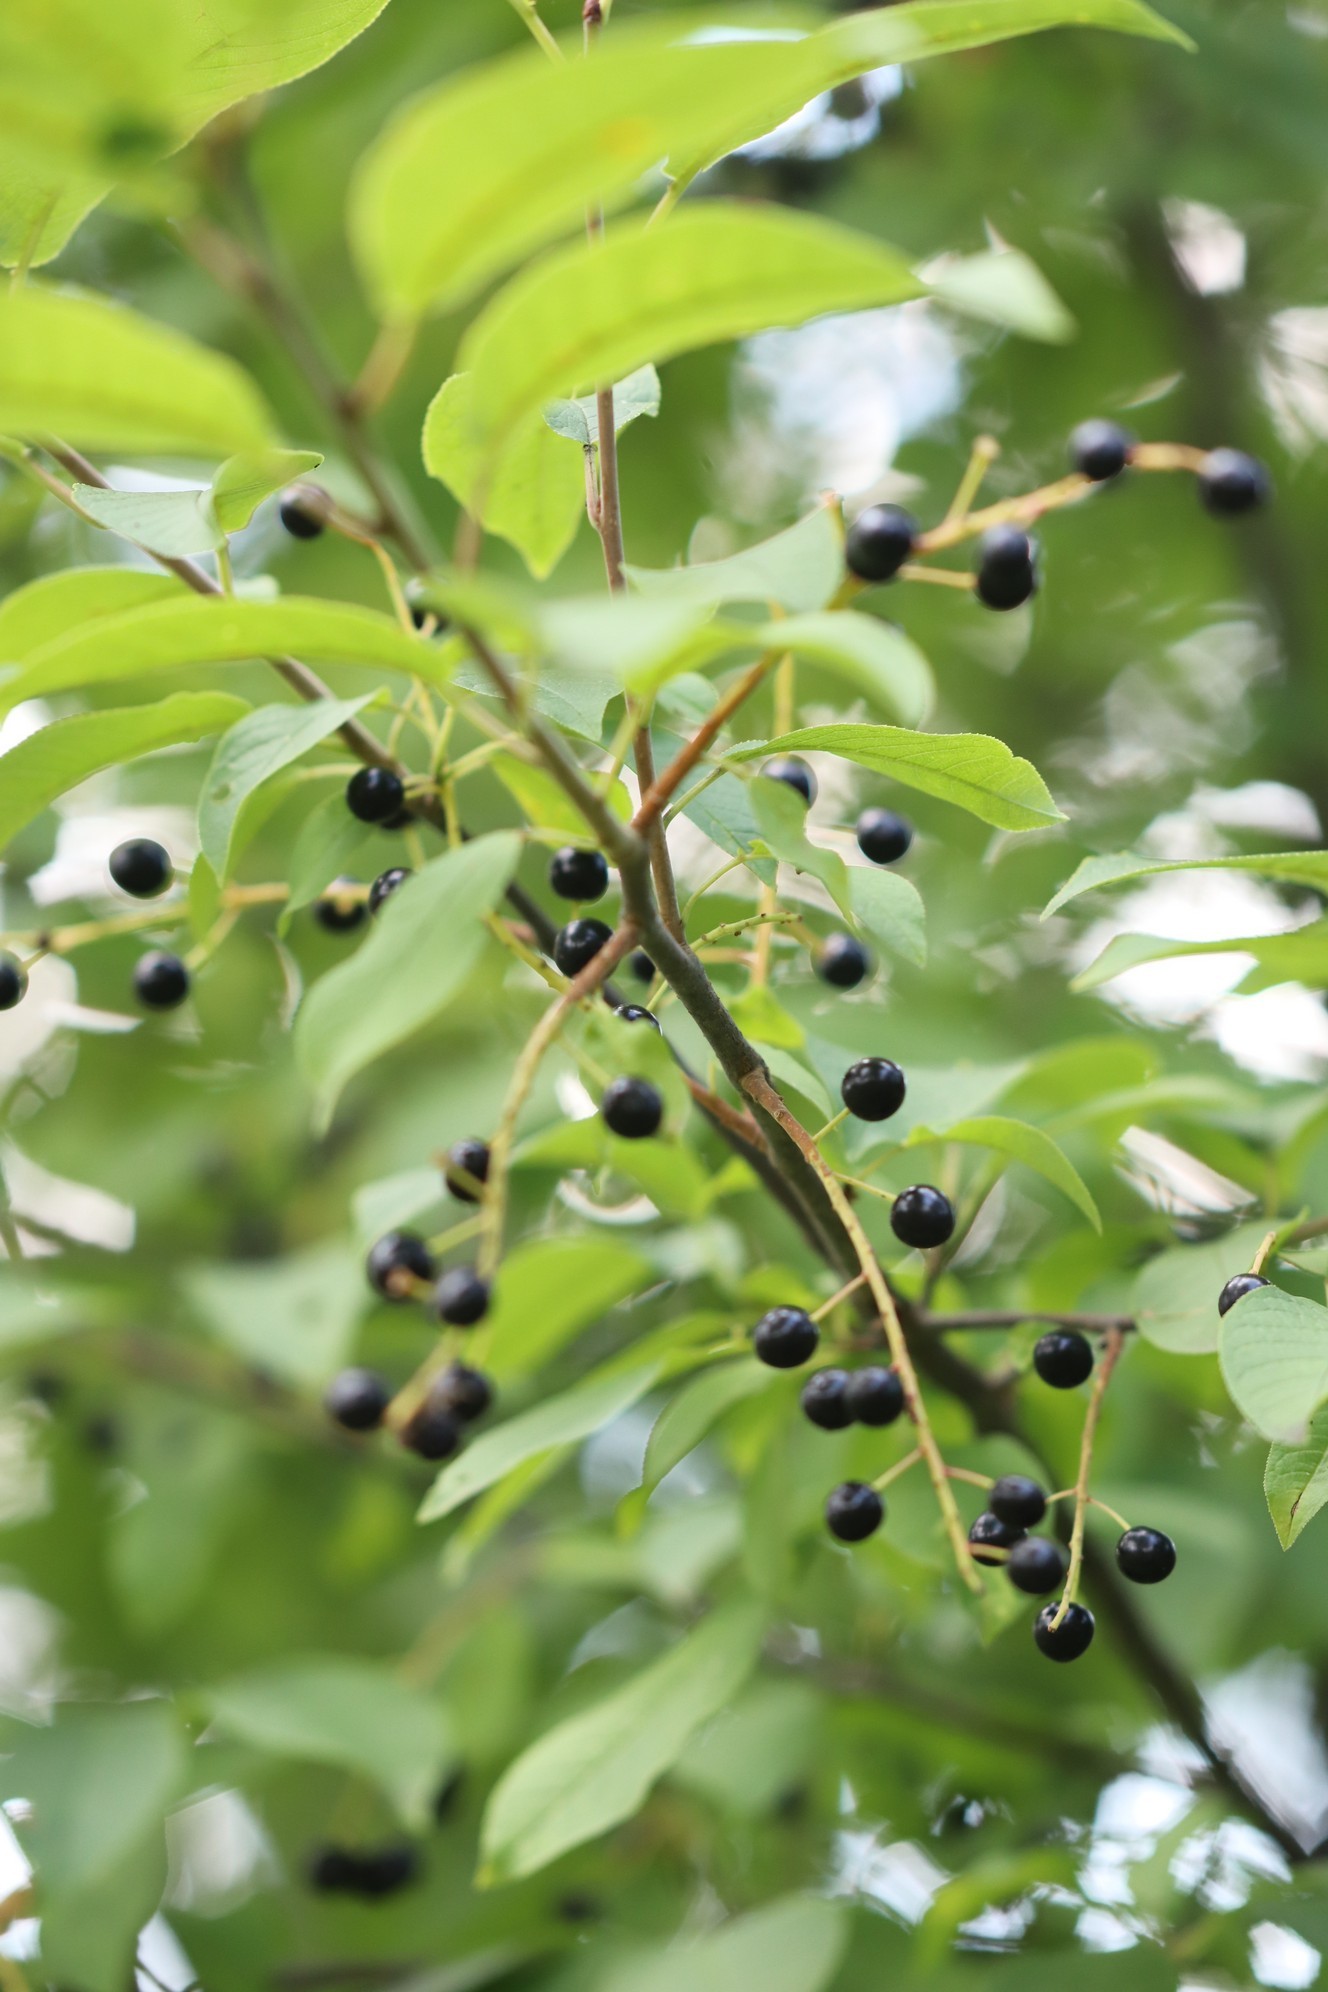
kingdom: Plantae
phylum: Tracheophyta
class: Magnoliopsida
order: Rosales
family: Rosaceae
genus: Prunus
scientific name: Prunus padus
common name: Bird cherry
